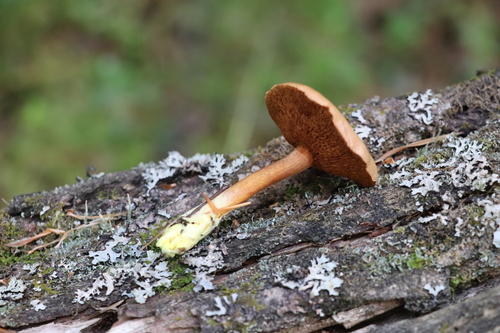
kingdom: Fungi
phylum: Basidiomycota
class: Agaricomycetes
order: Boletales
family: Boletaceae
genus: Chalciporus
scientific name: Chalciporus piperatus
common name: Peppery bolete
